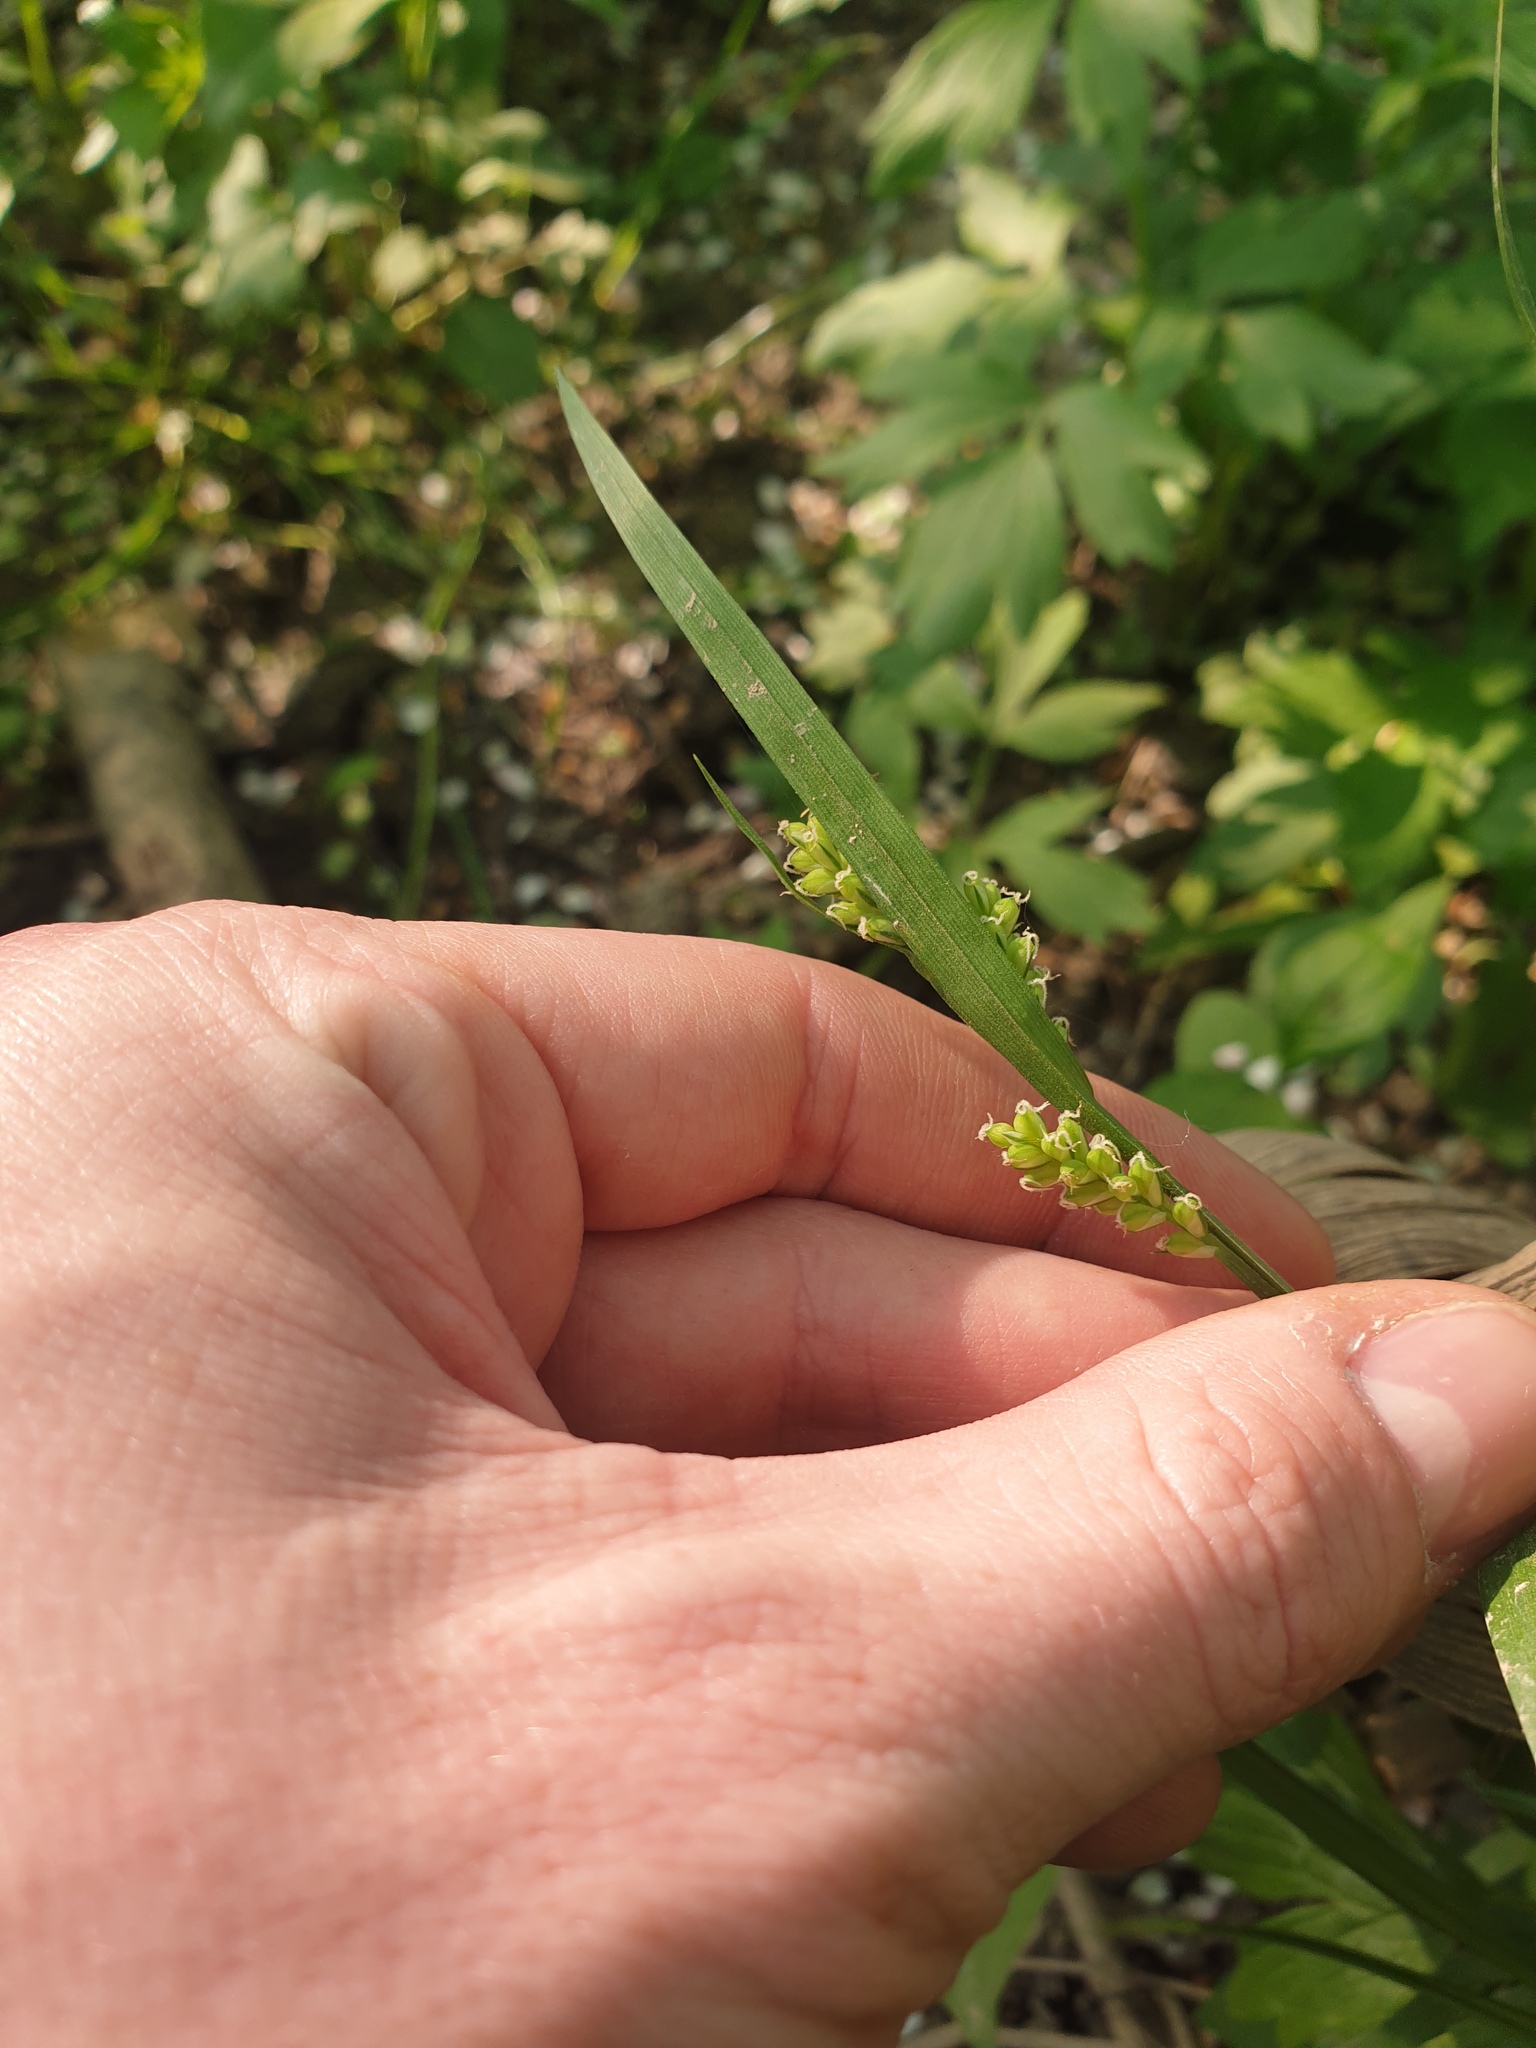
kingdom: Plantae
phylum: Tracheophyta
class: Liliopsida
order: Poales
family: Cyperaceae
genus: Carex
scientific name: Carex blanda
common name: Bland sedge
